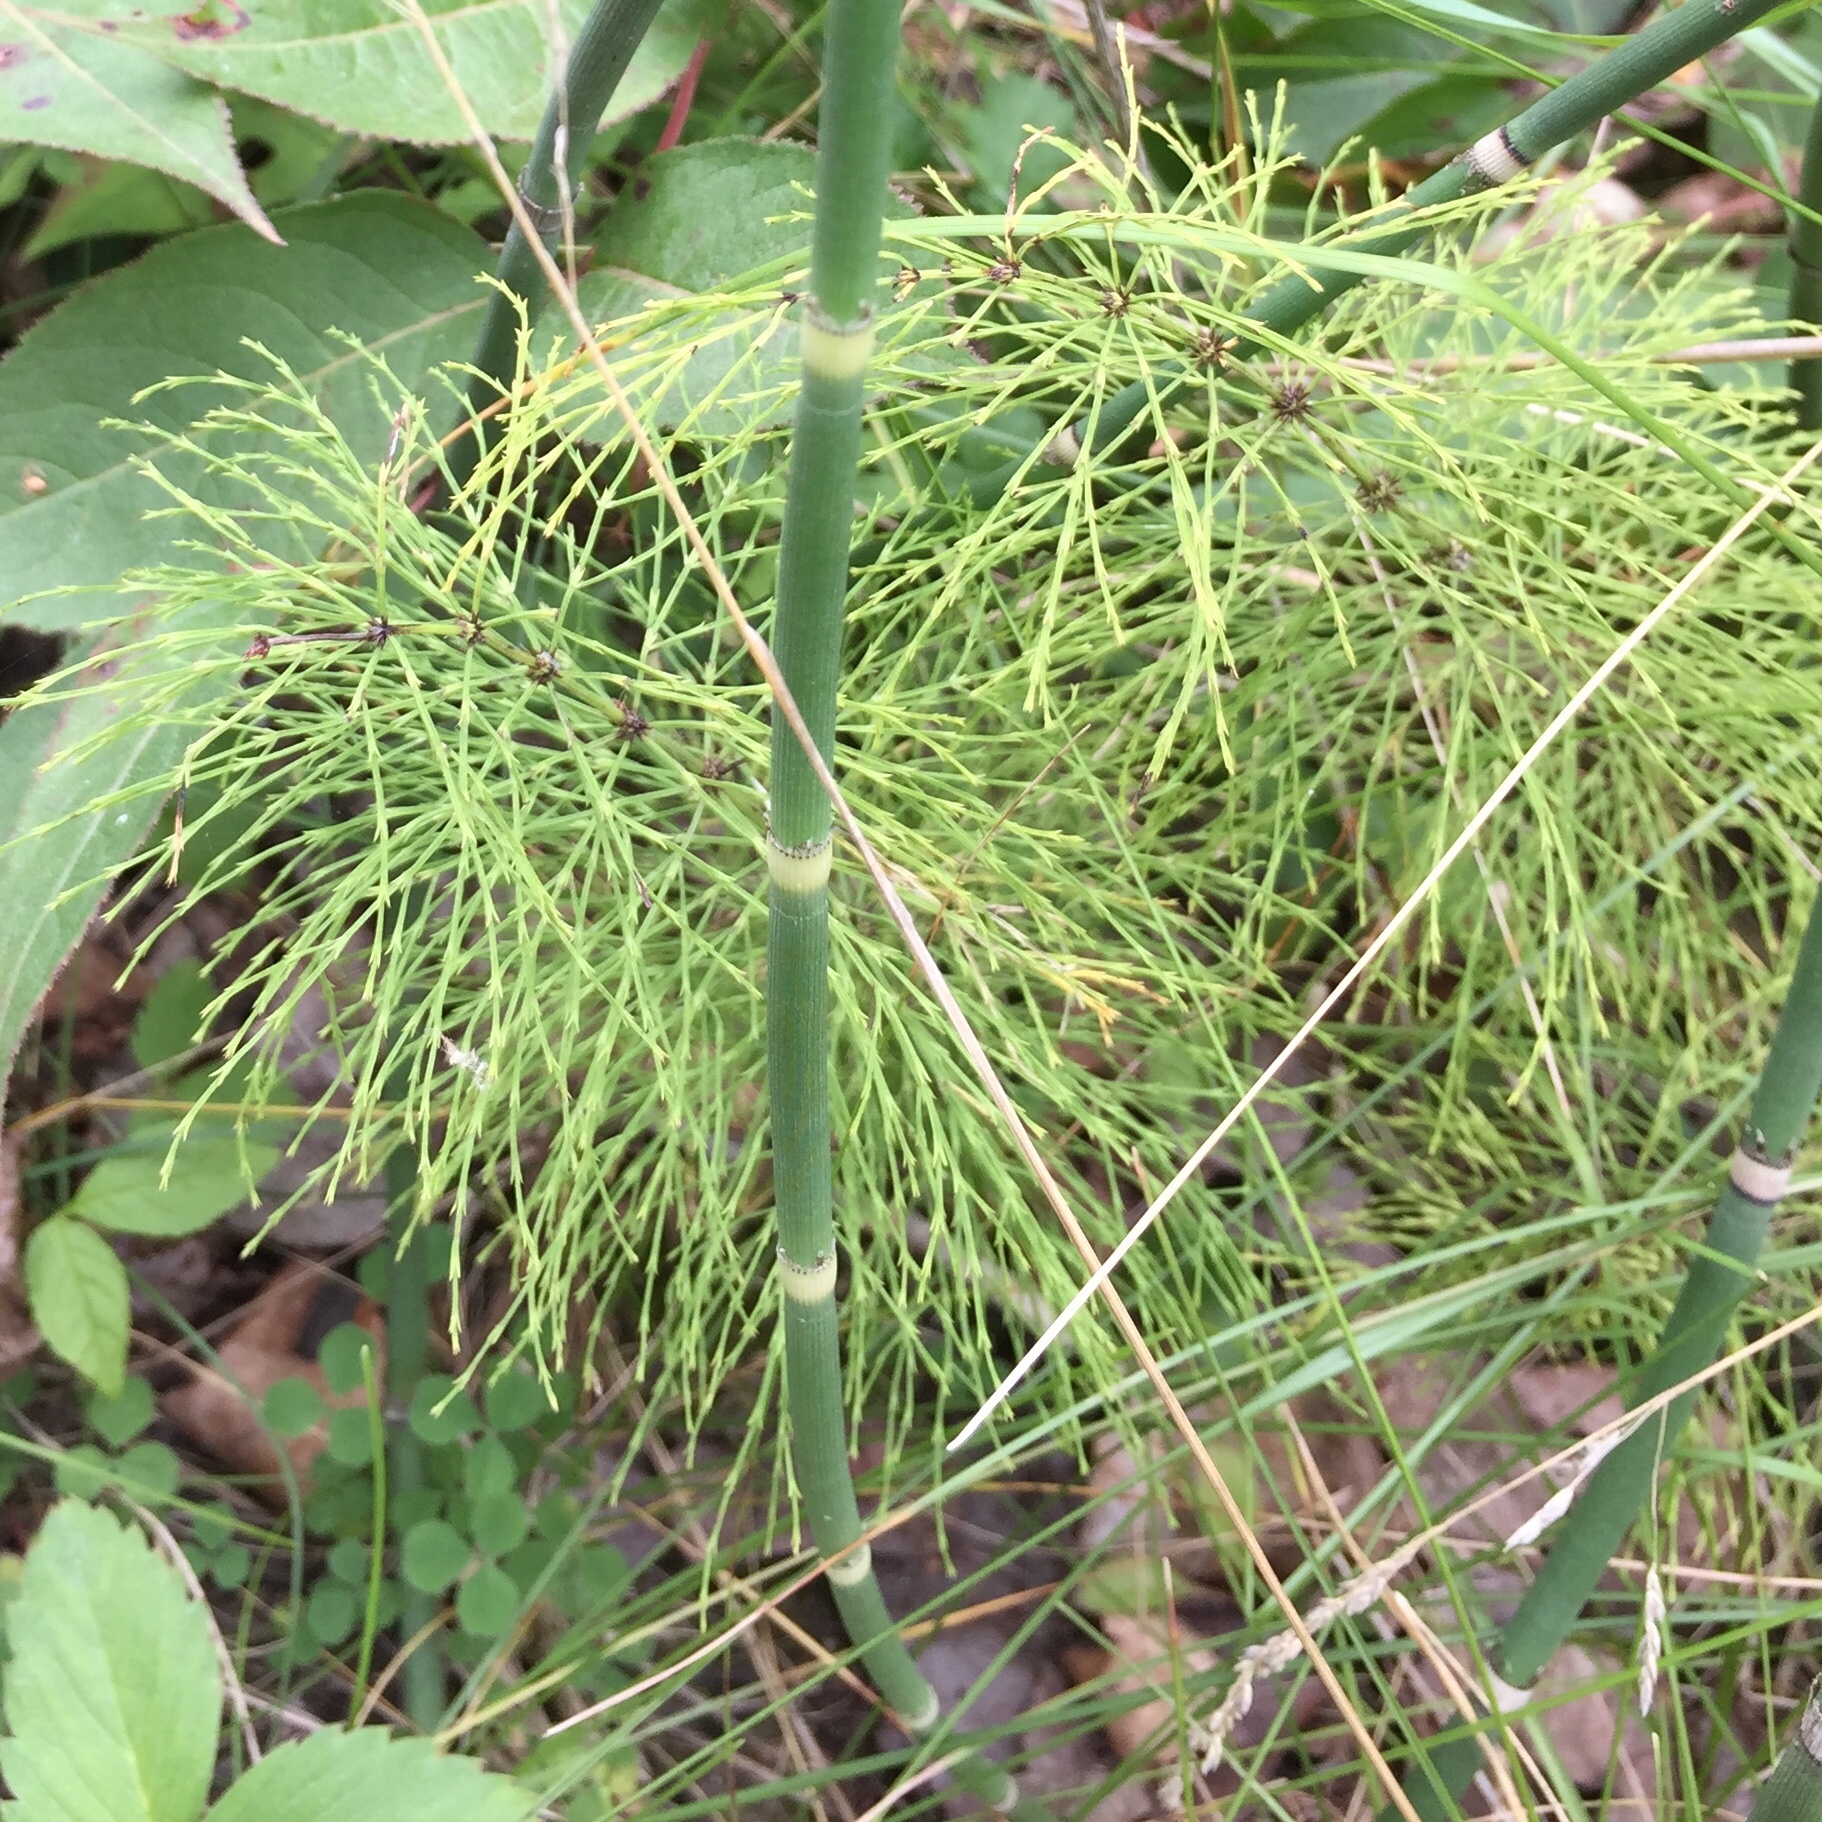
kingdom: Plantae
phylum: Tracheophyta
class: Polypodiopsida
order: Equisetales
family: Equisetaceae
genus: Equisetum
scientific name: Equisetum sylvaticum
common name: Wood horsetail
